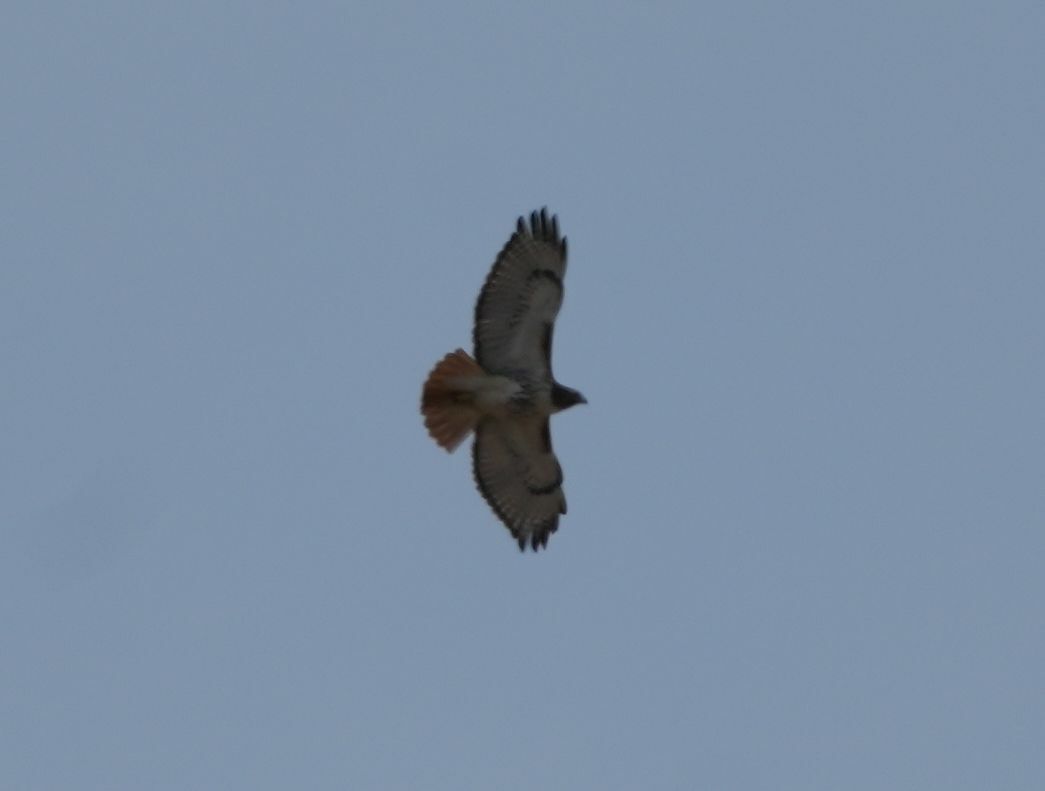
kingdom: Animalia
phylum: Chordata
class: Aves
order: Accipitriformes
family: Accipitridae
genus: Buteo
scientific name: Buteo jamaicensis
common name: Red-tailed hawk
